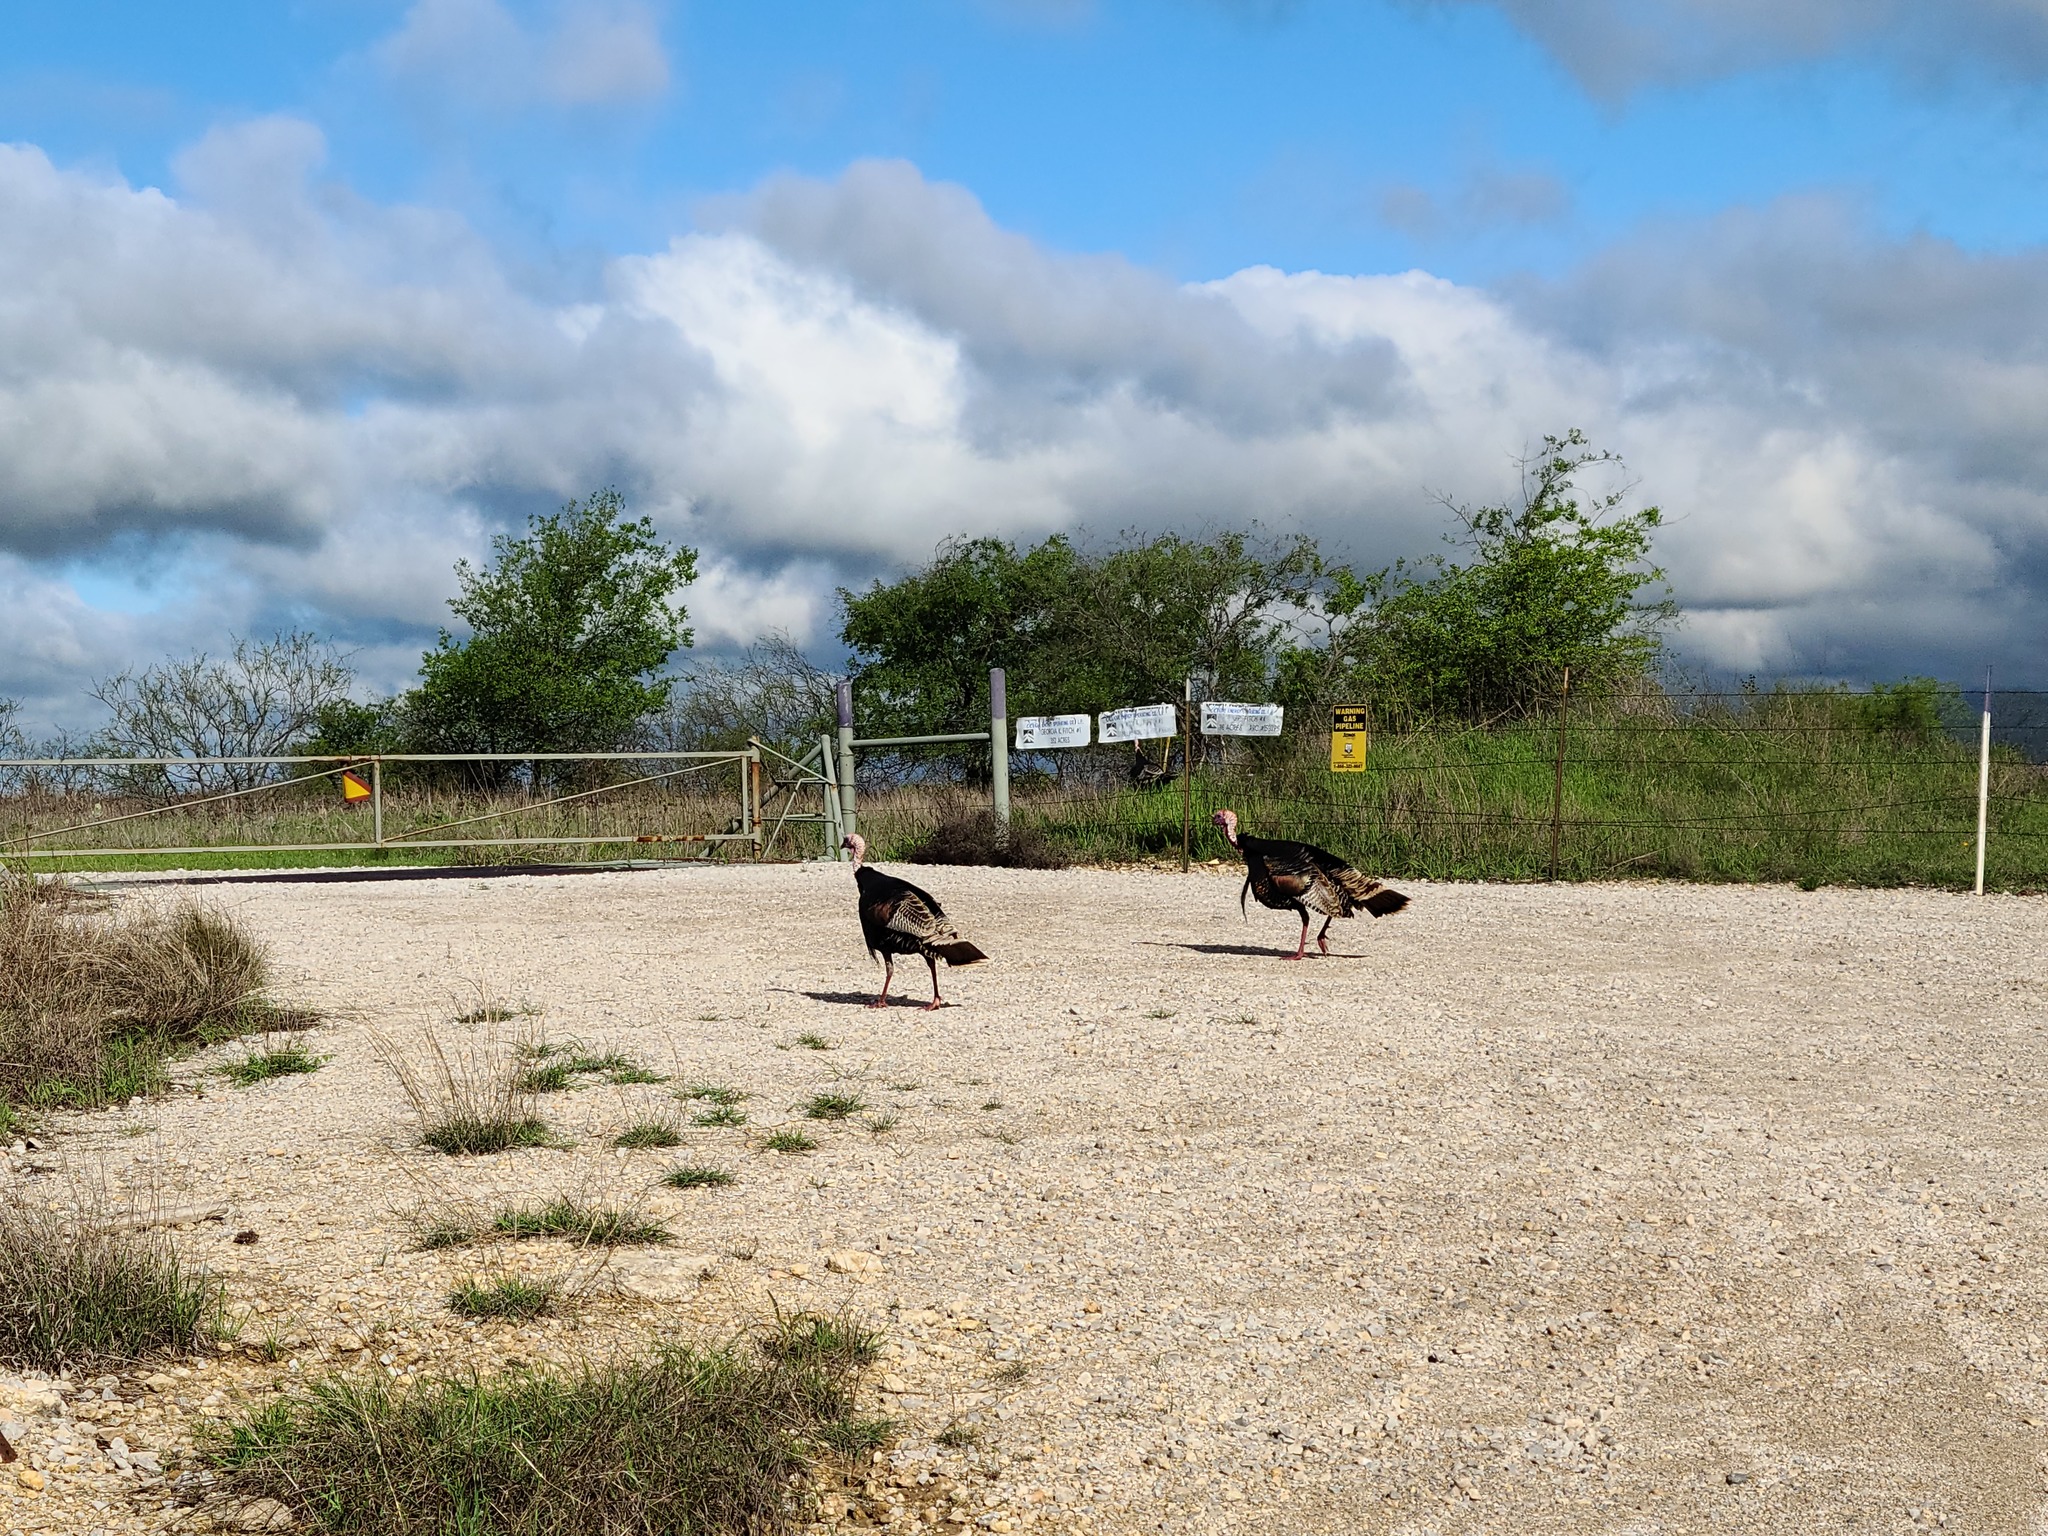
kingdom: Animalia
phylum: Chordata
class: Aves
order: Galliformes
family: Phasianidae
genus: Meleagris
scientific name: Meleagris gallopavo
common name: Wild turkey
